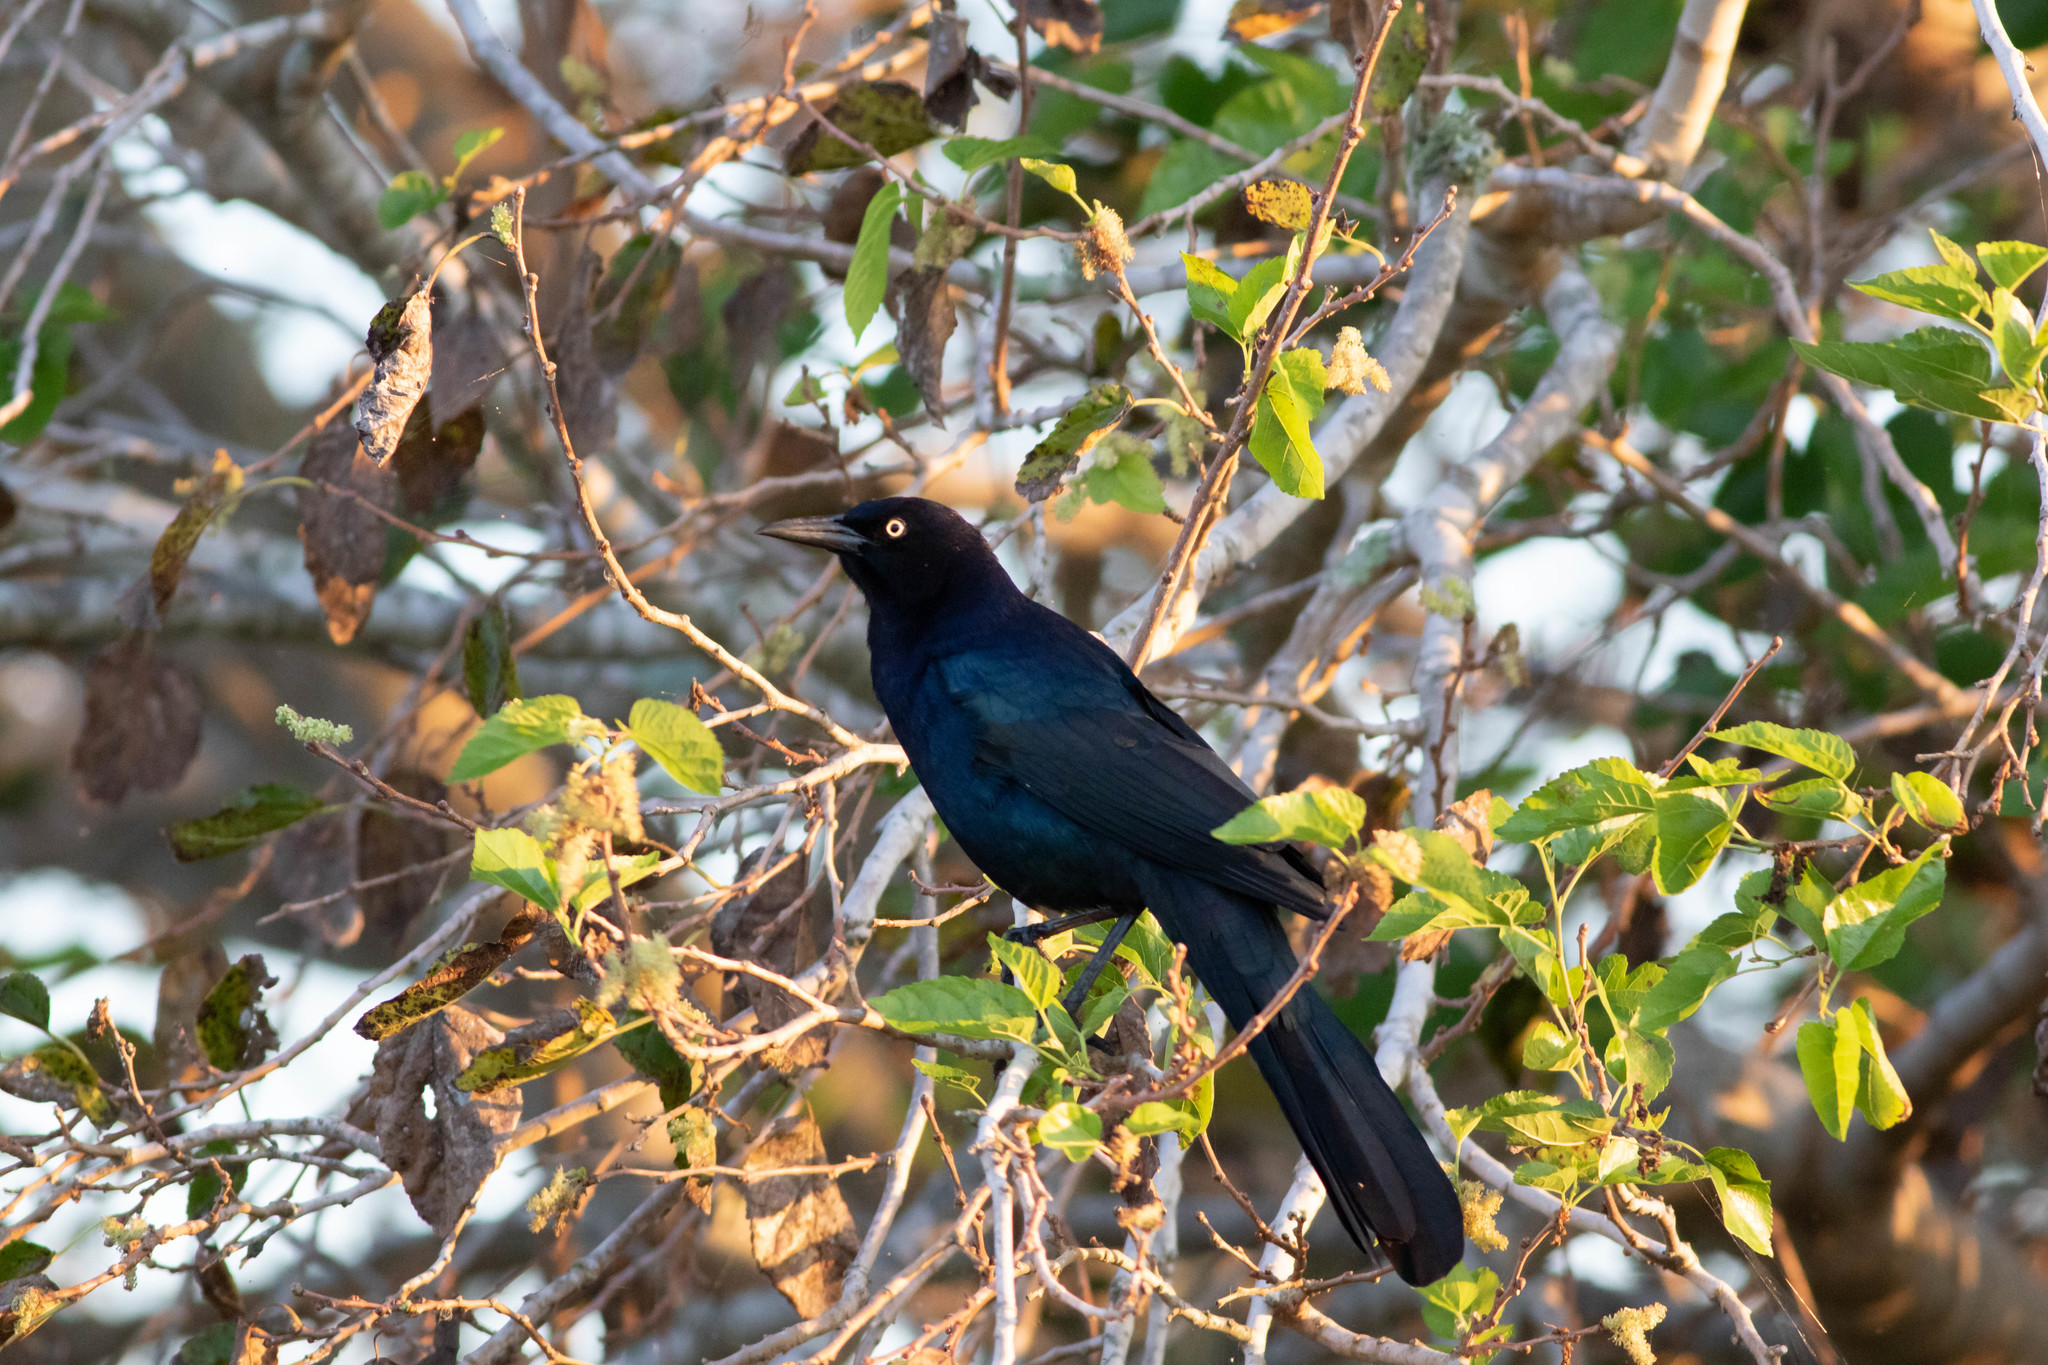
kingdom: Animalia
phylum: Chordata
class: Aves
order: Passeriformes
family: Icteridae
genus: Quiscalus
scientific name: Quiscalus major
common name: Boat-tailed grackle
